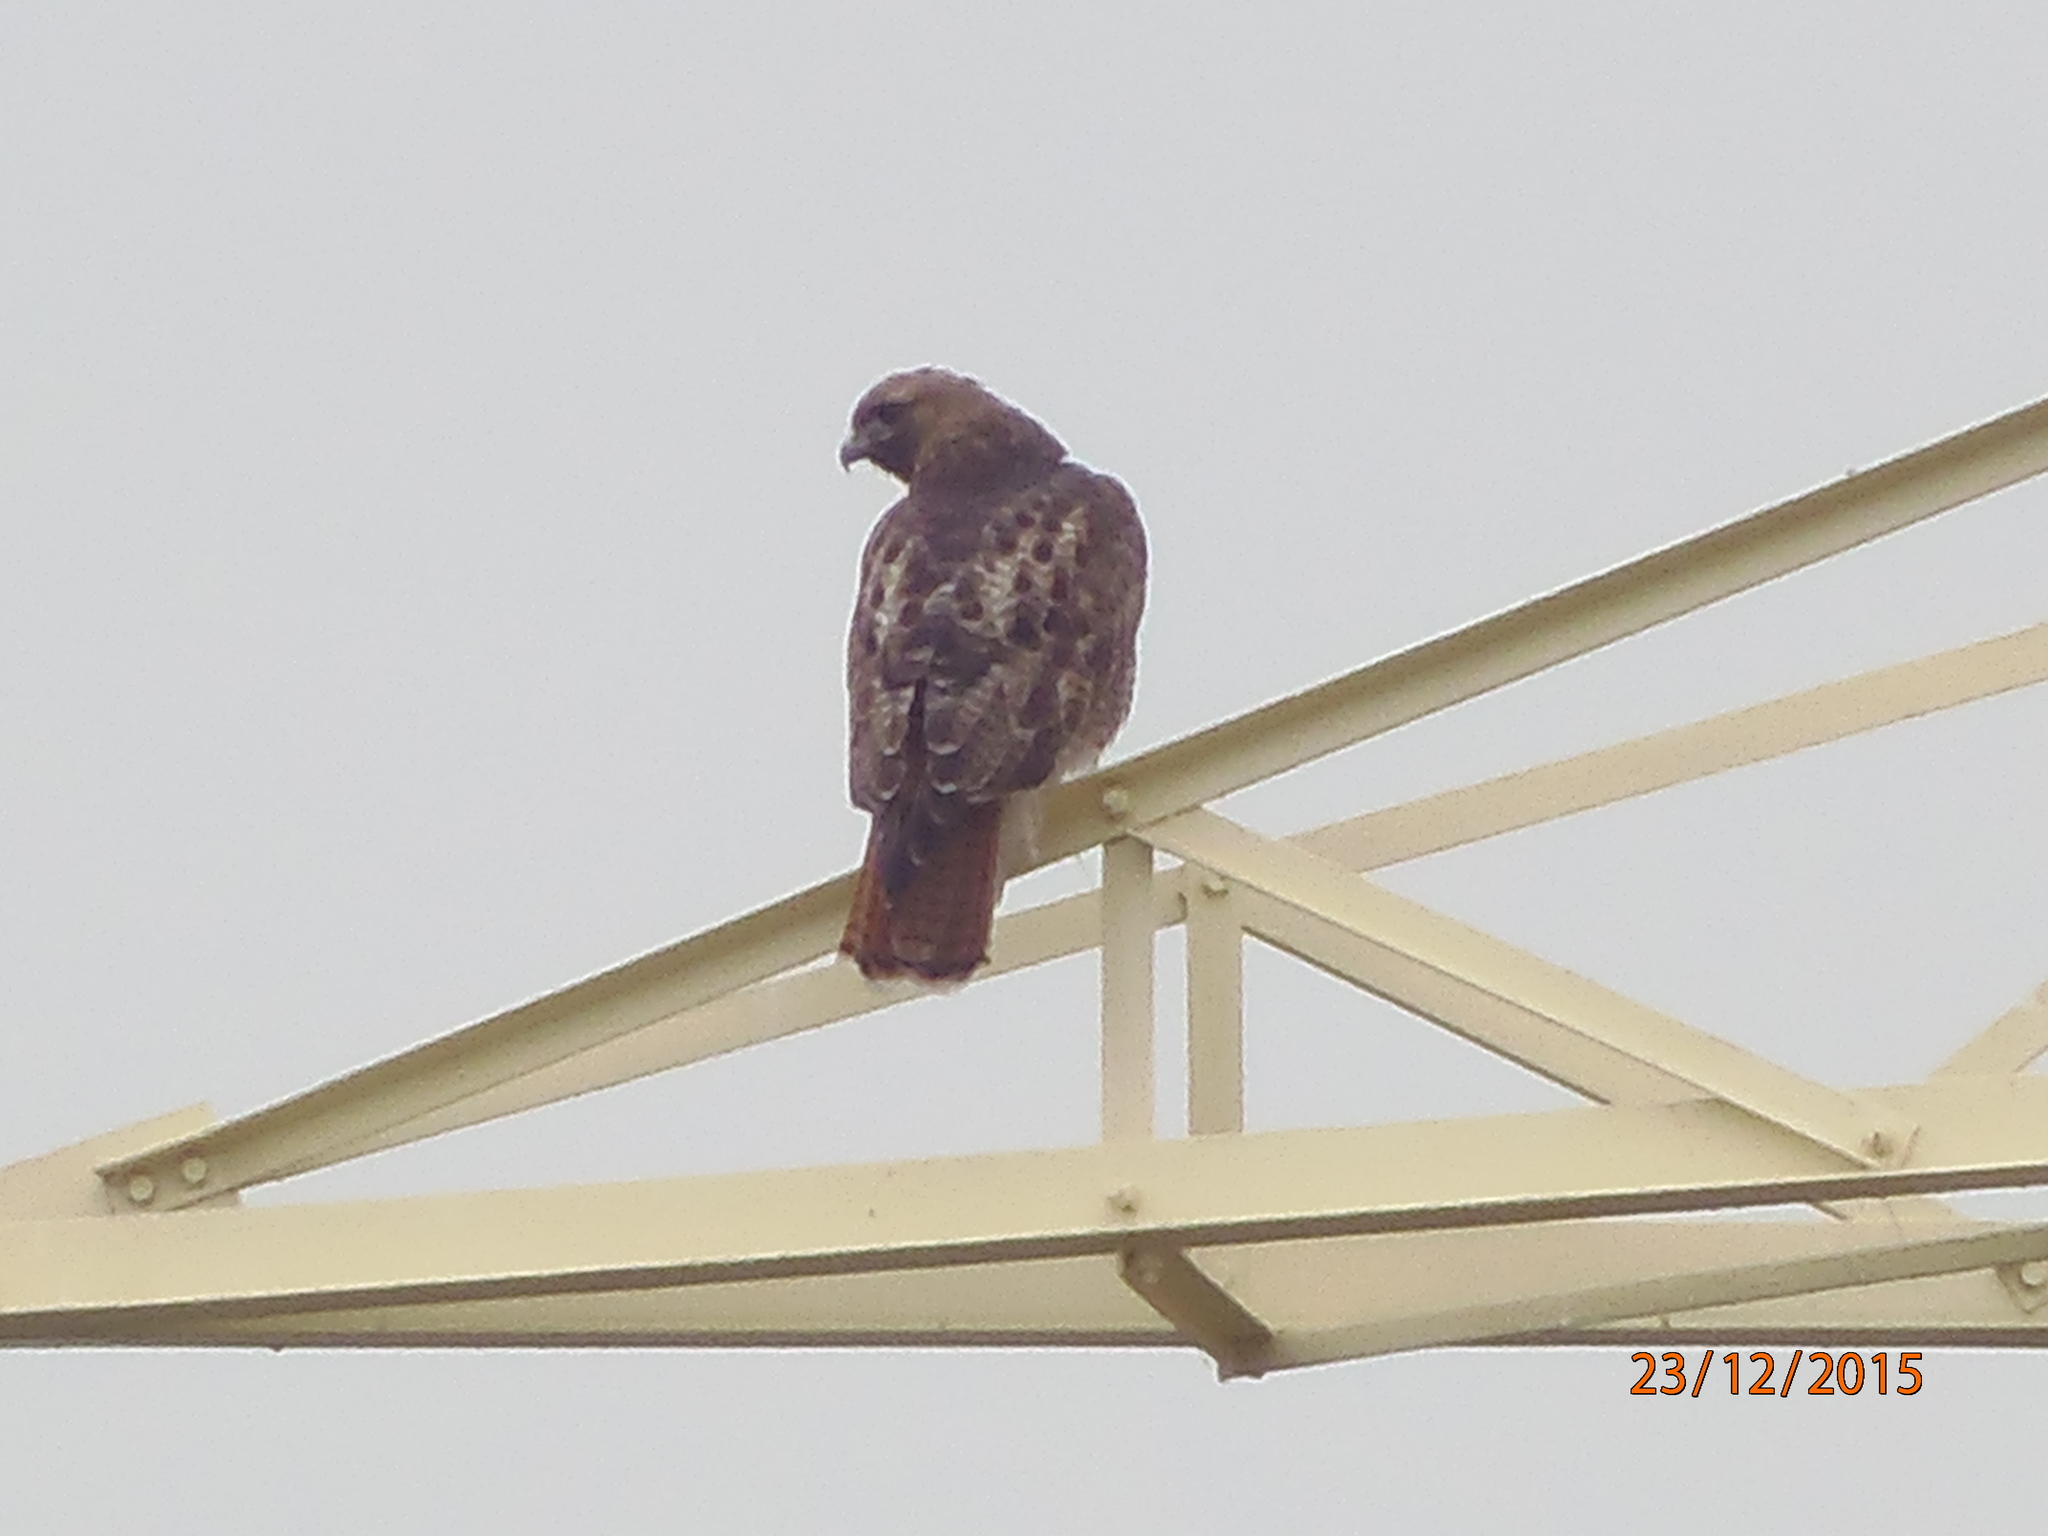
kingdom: Animalia
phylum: Chordata
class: Aves
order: Accipitriformes
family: Accipitridae
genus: Buteo
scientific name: Buteo jamaicensis
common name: Red-tailed hawk
